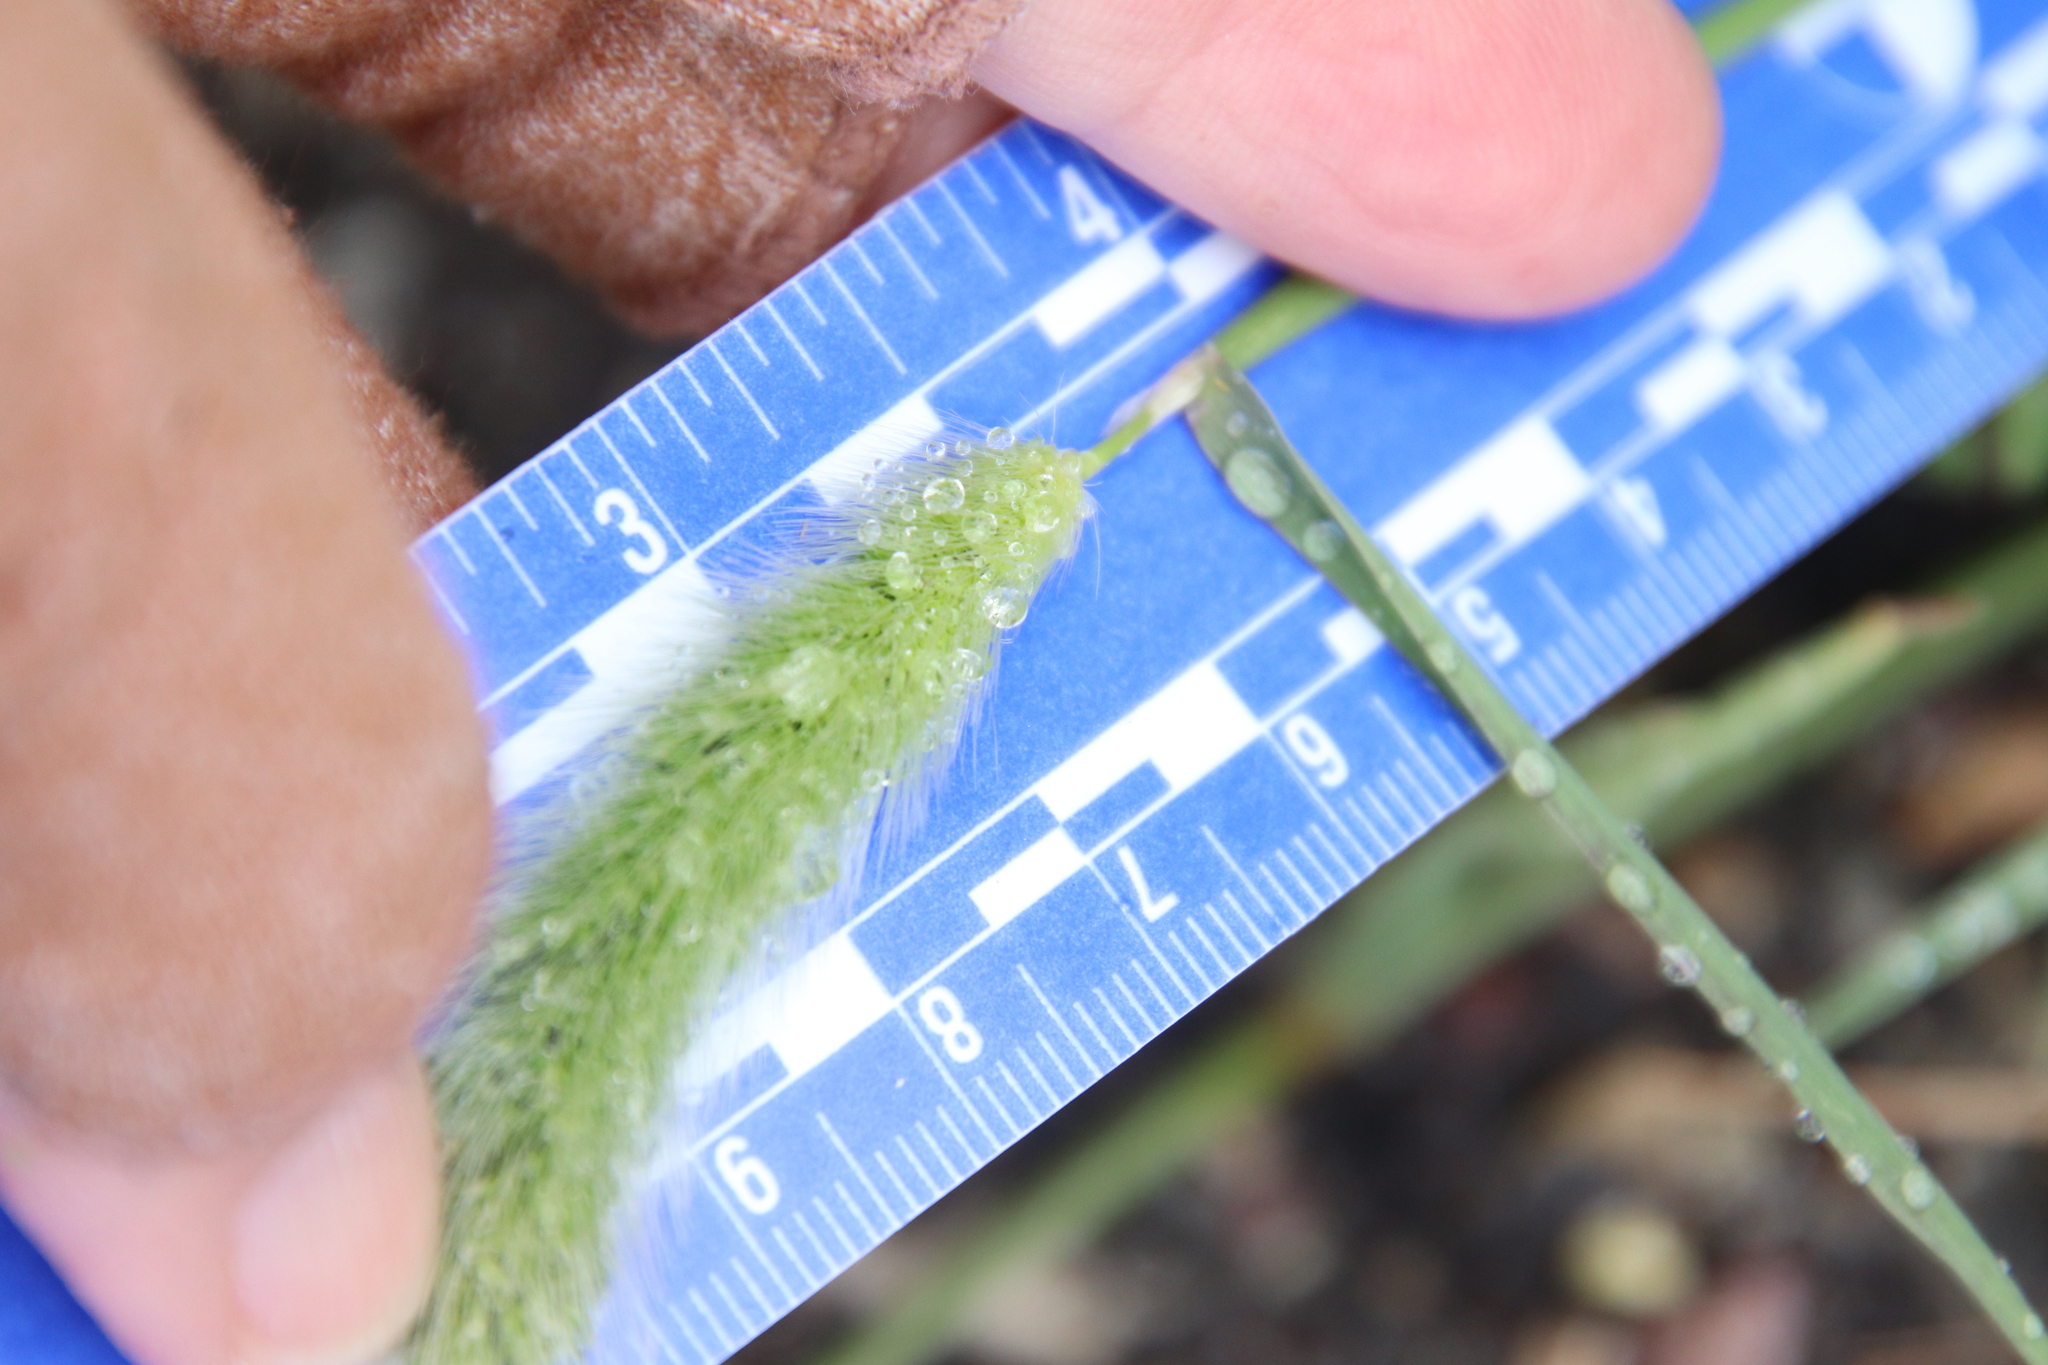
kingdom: Plantae
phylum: Tracheophyta
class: Liliopsida
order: Poales
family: Poaceae
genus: Polypogon
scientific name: Polypogon monspeliensis
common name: Annual rabbitsfoot grass
